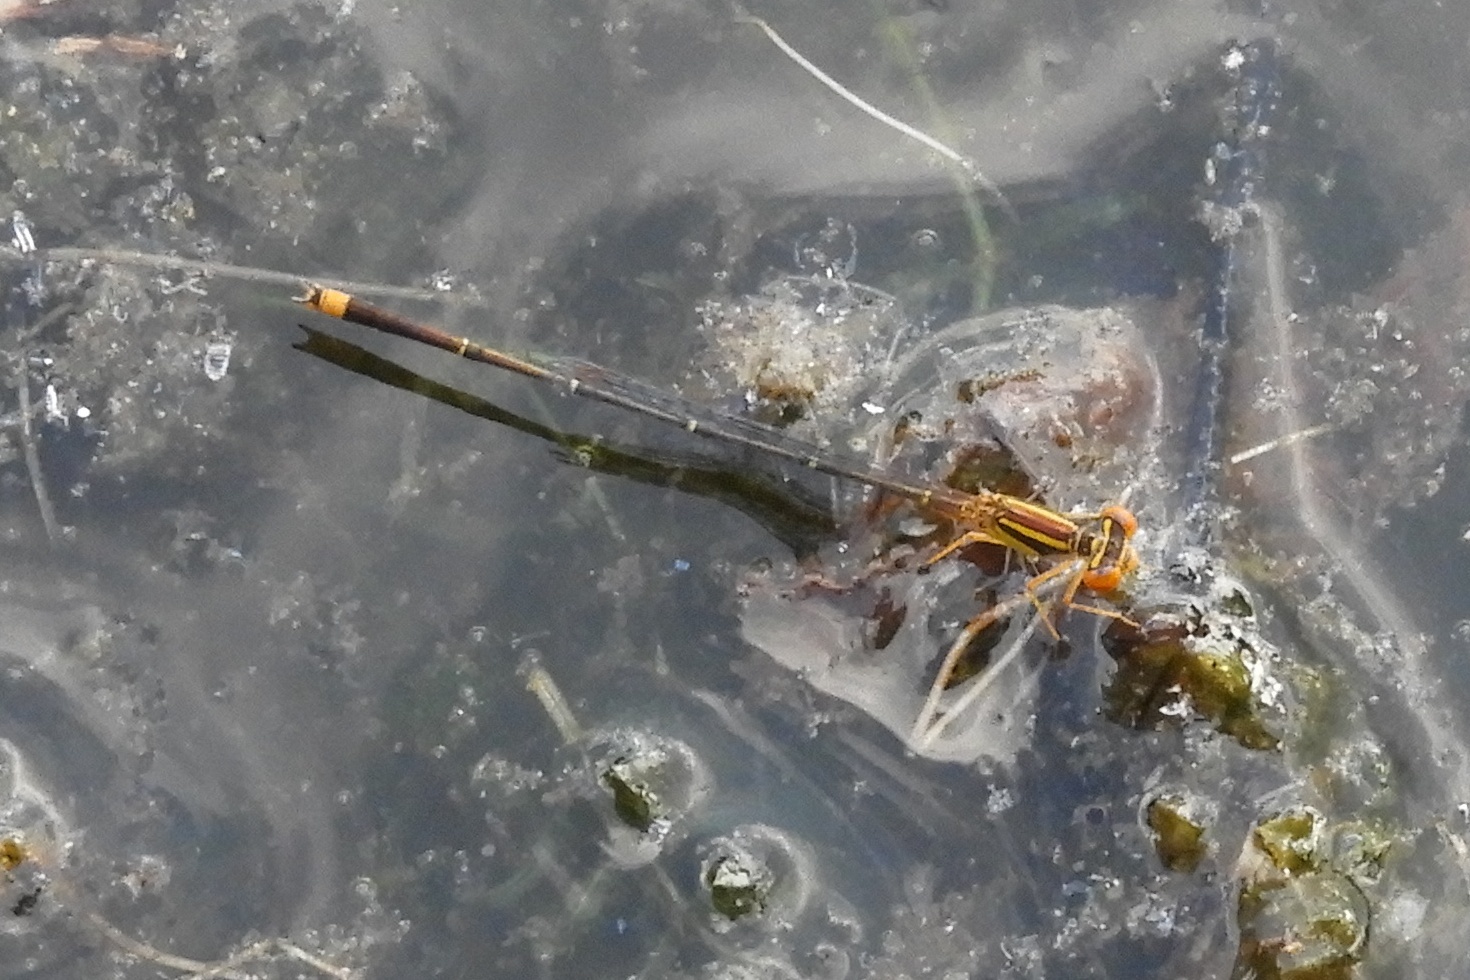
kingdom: Animalia
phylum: Arthropoda
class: Insecta
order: Odonata
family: Coenagrionidae
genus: Enallagma
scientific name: Enallagma signatum
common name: Orange bluet
